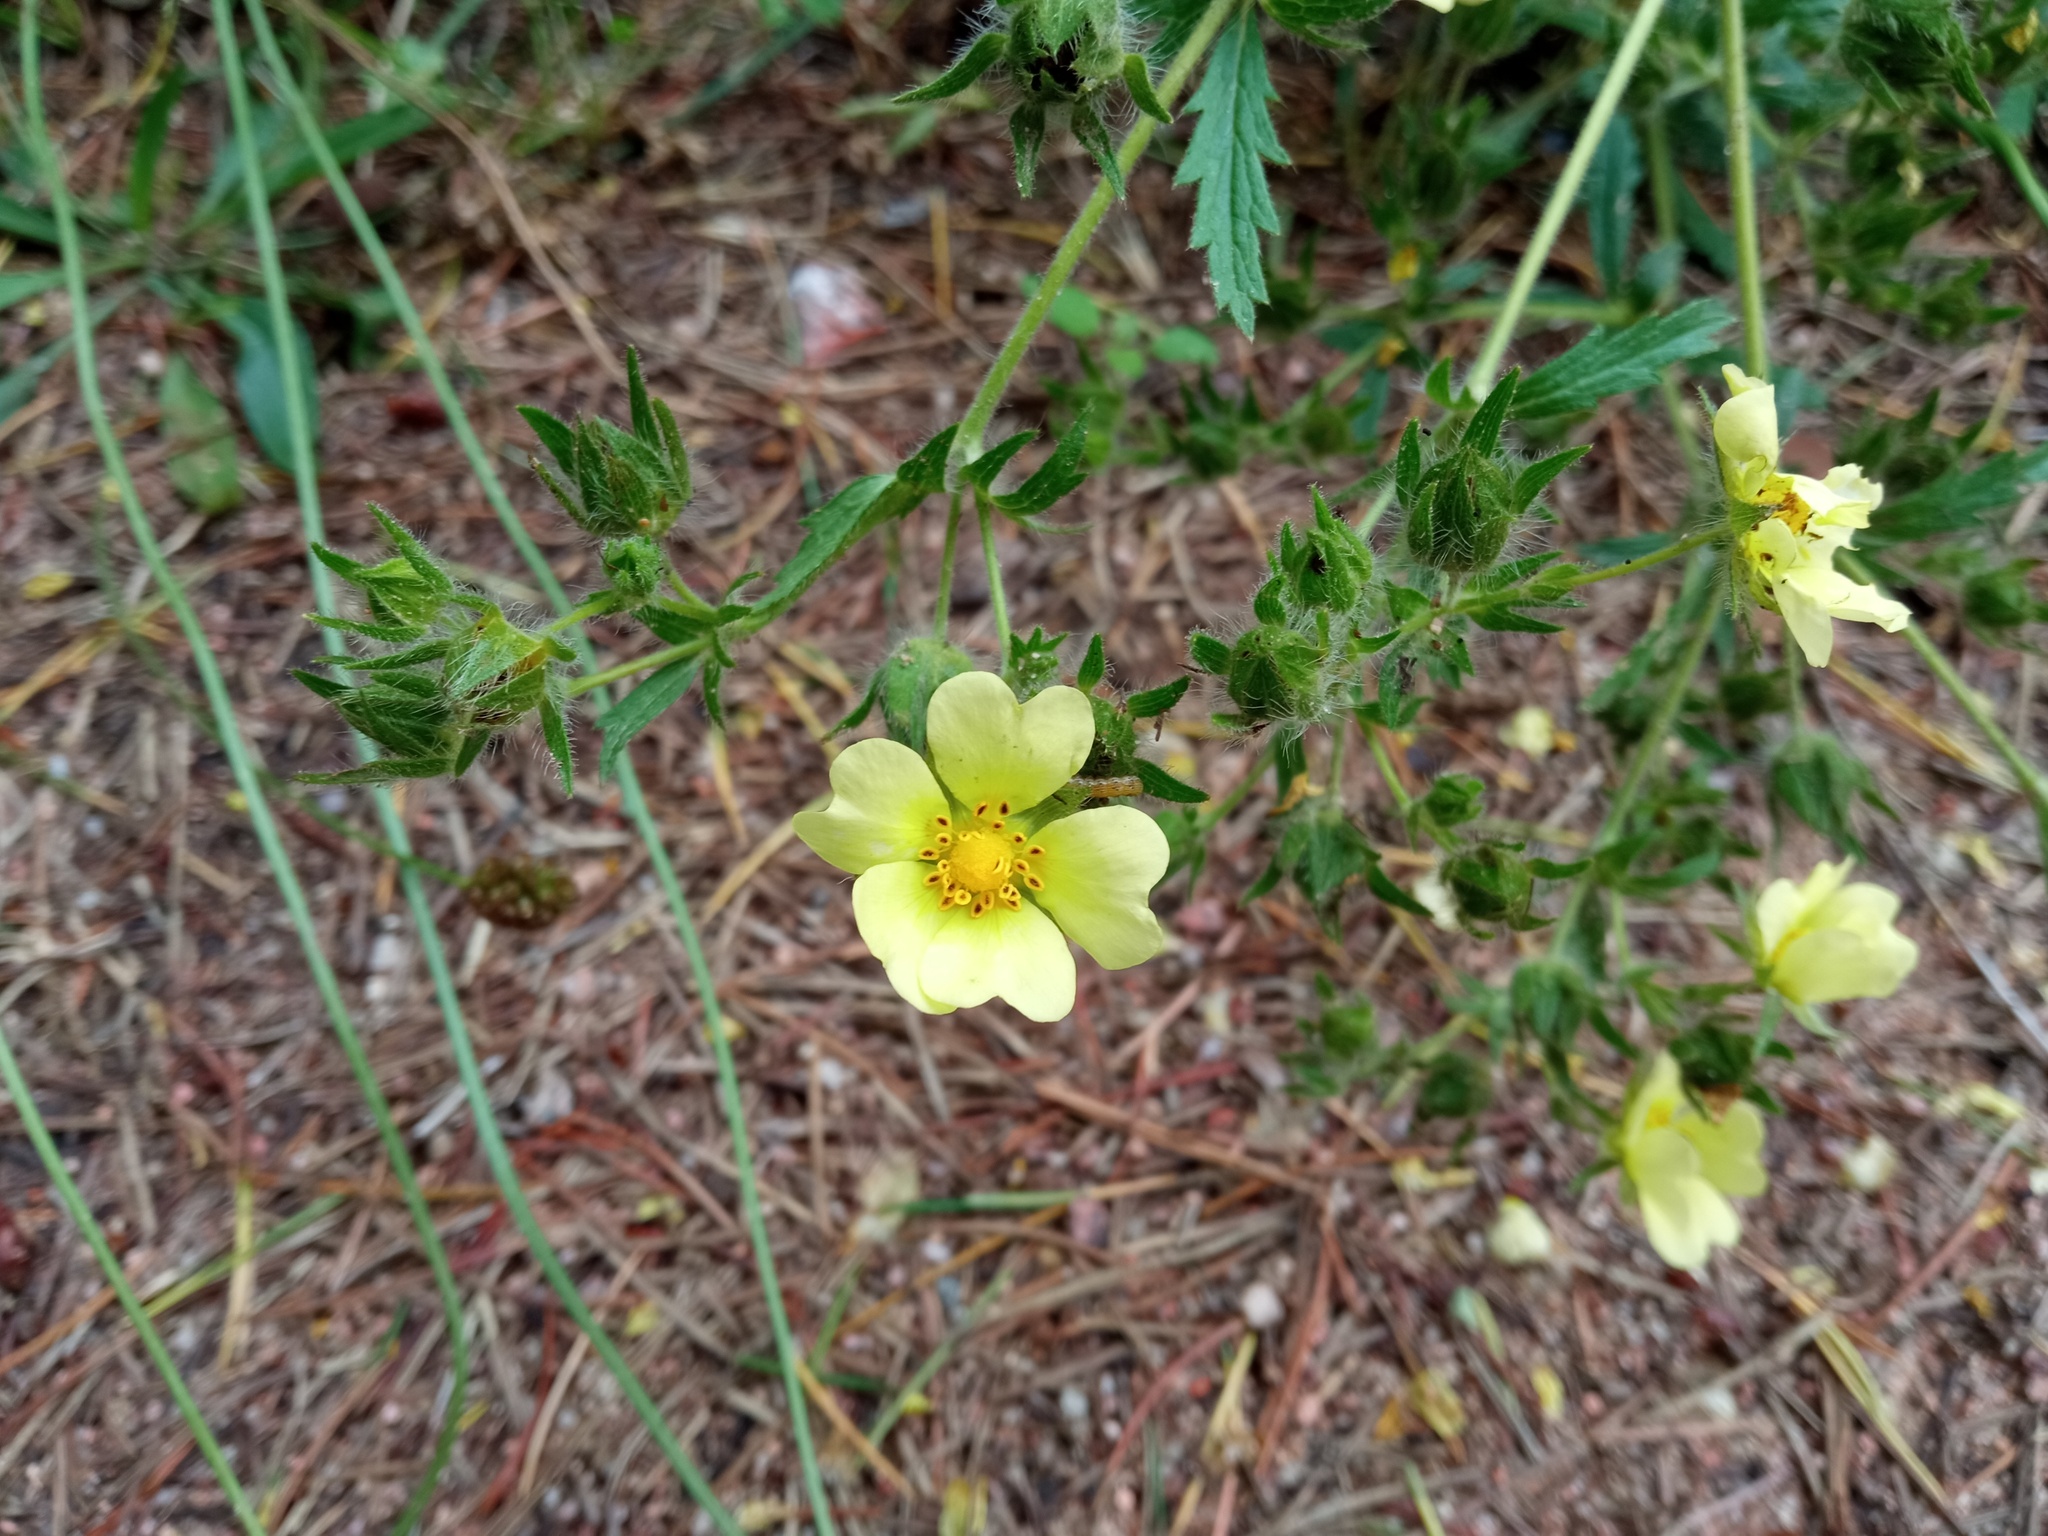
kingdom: Plantae
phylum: Tracheophyta
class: Magnoliopsida
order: Rosales
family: Rosaceae
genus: Potentilla
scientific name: Potentilla recta
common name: Sulphur cinquefoil
